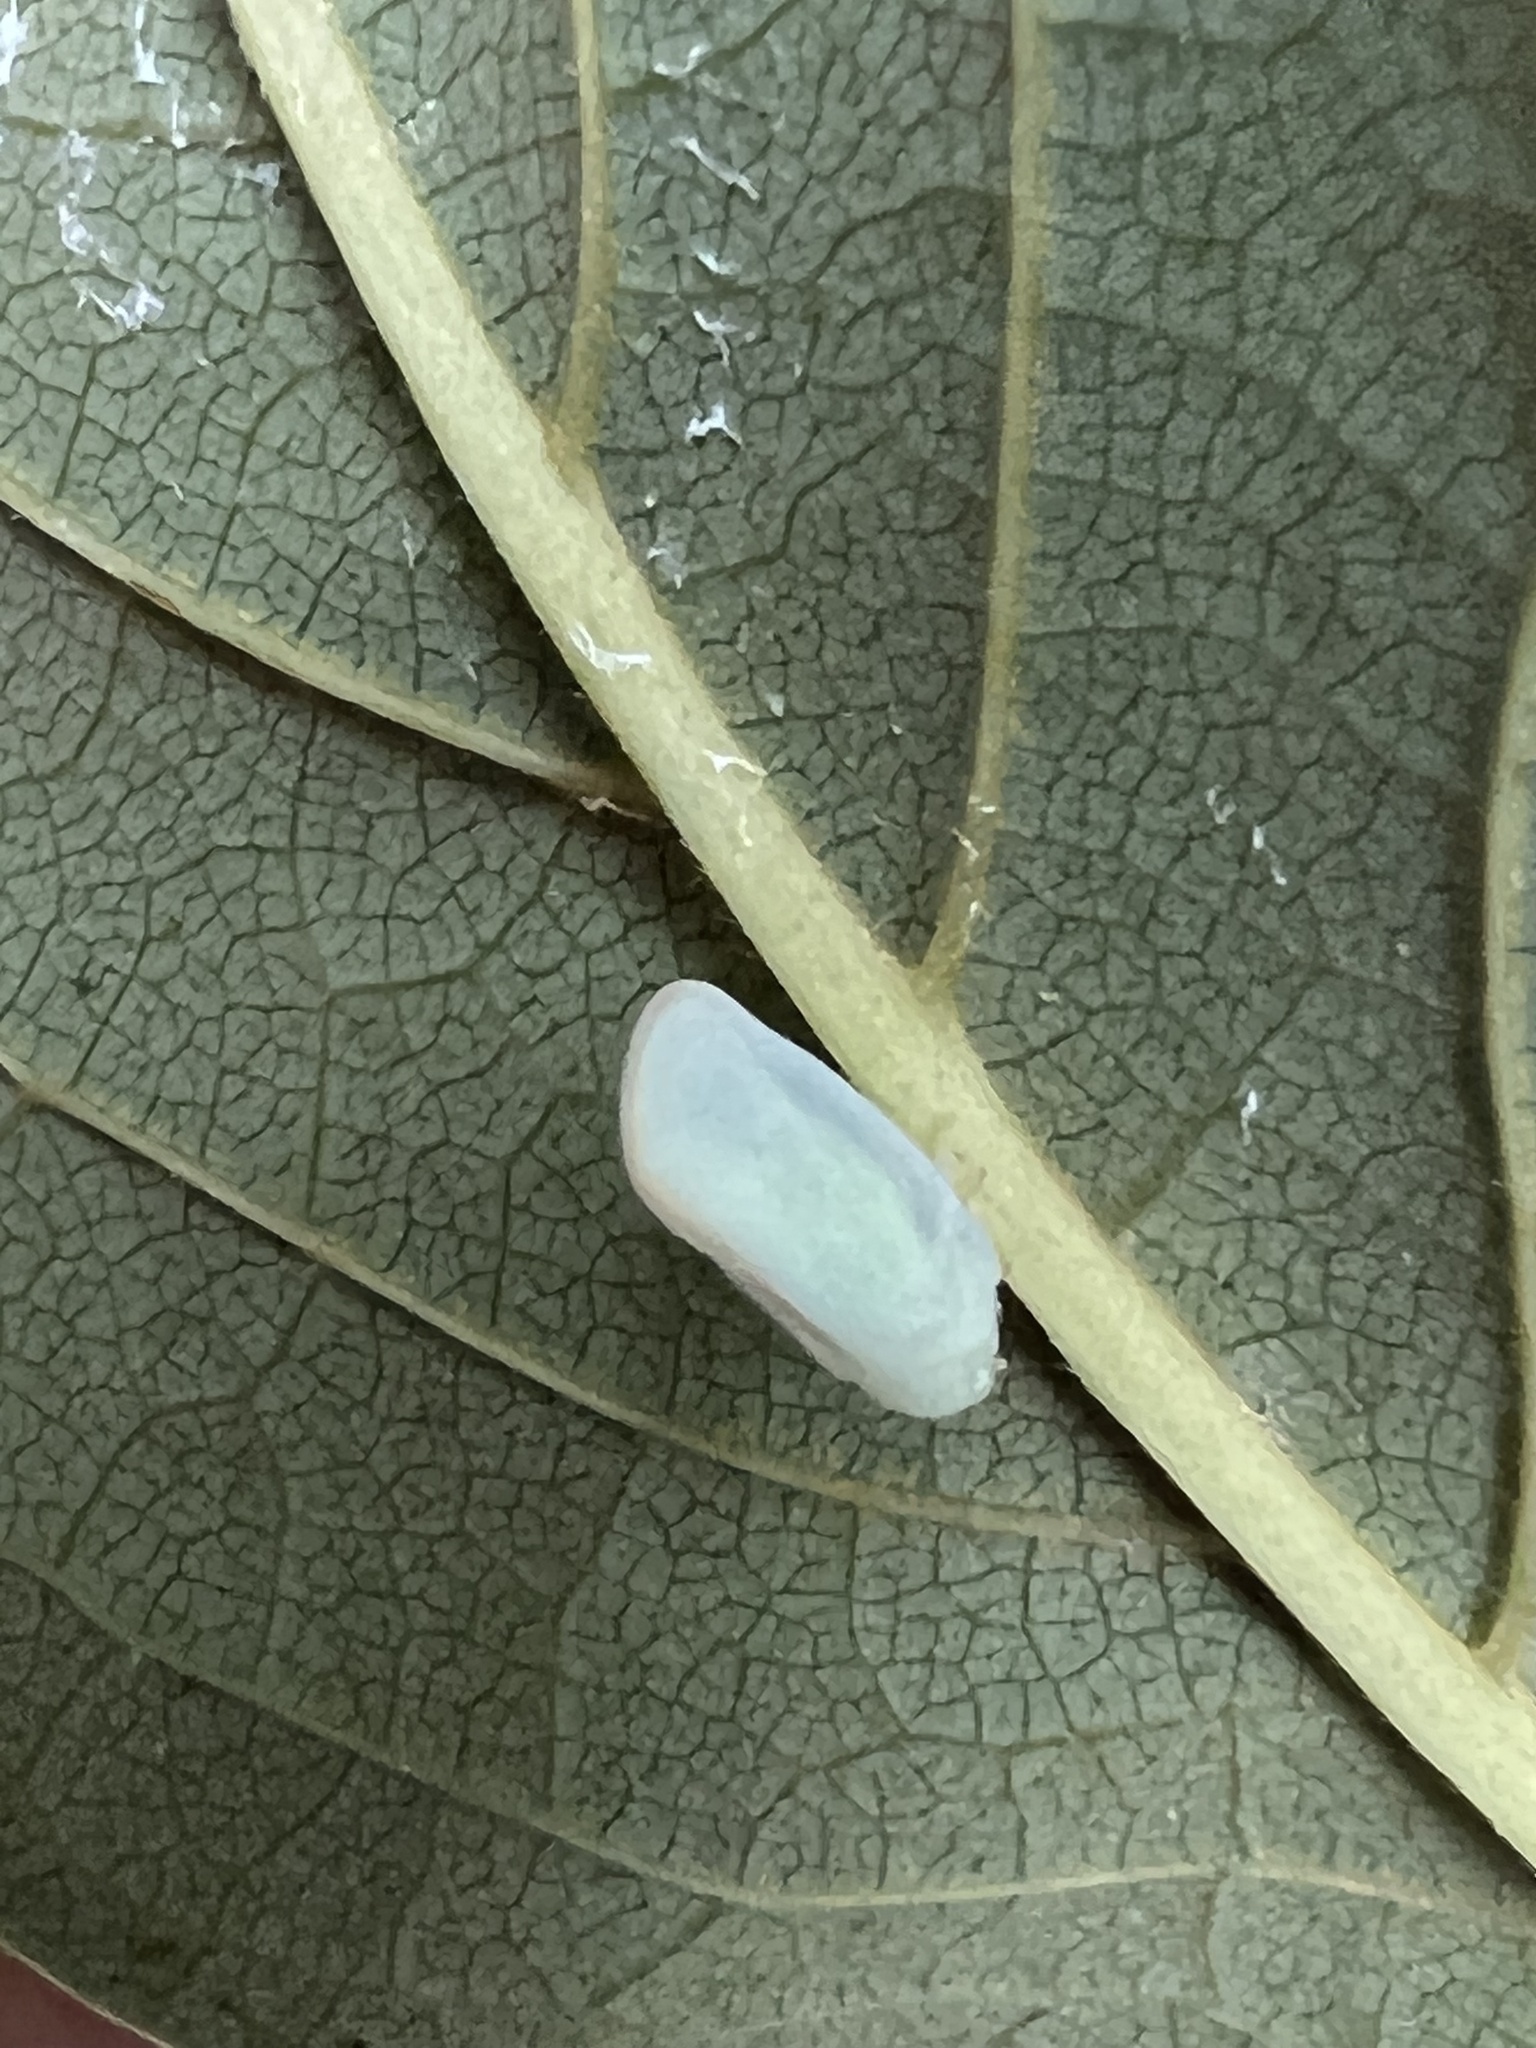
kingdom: Animalia
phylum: Arthropoda
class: Insecta
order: Hemiptera
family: Flatidae
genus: Ormenoides
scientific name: Ormenoides venusta
